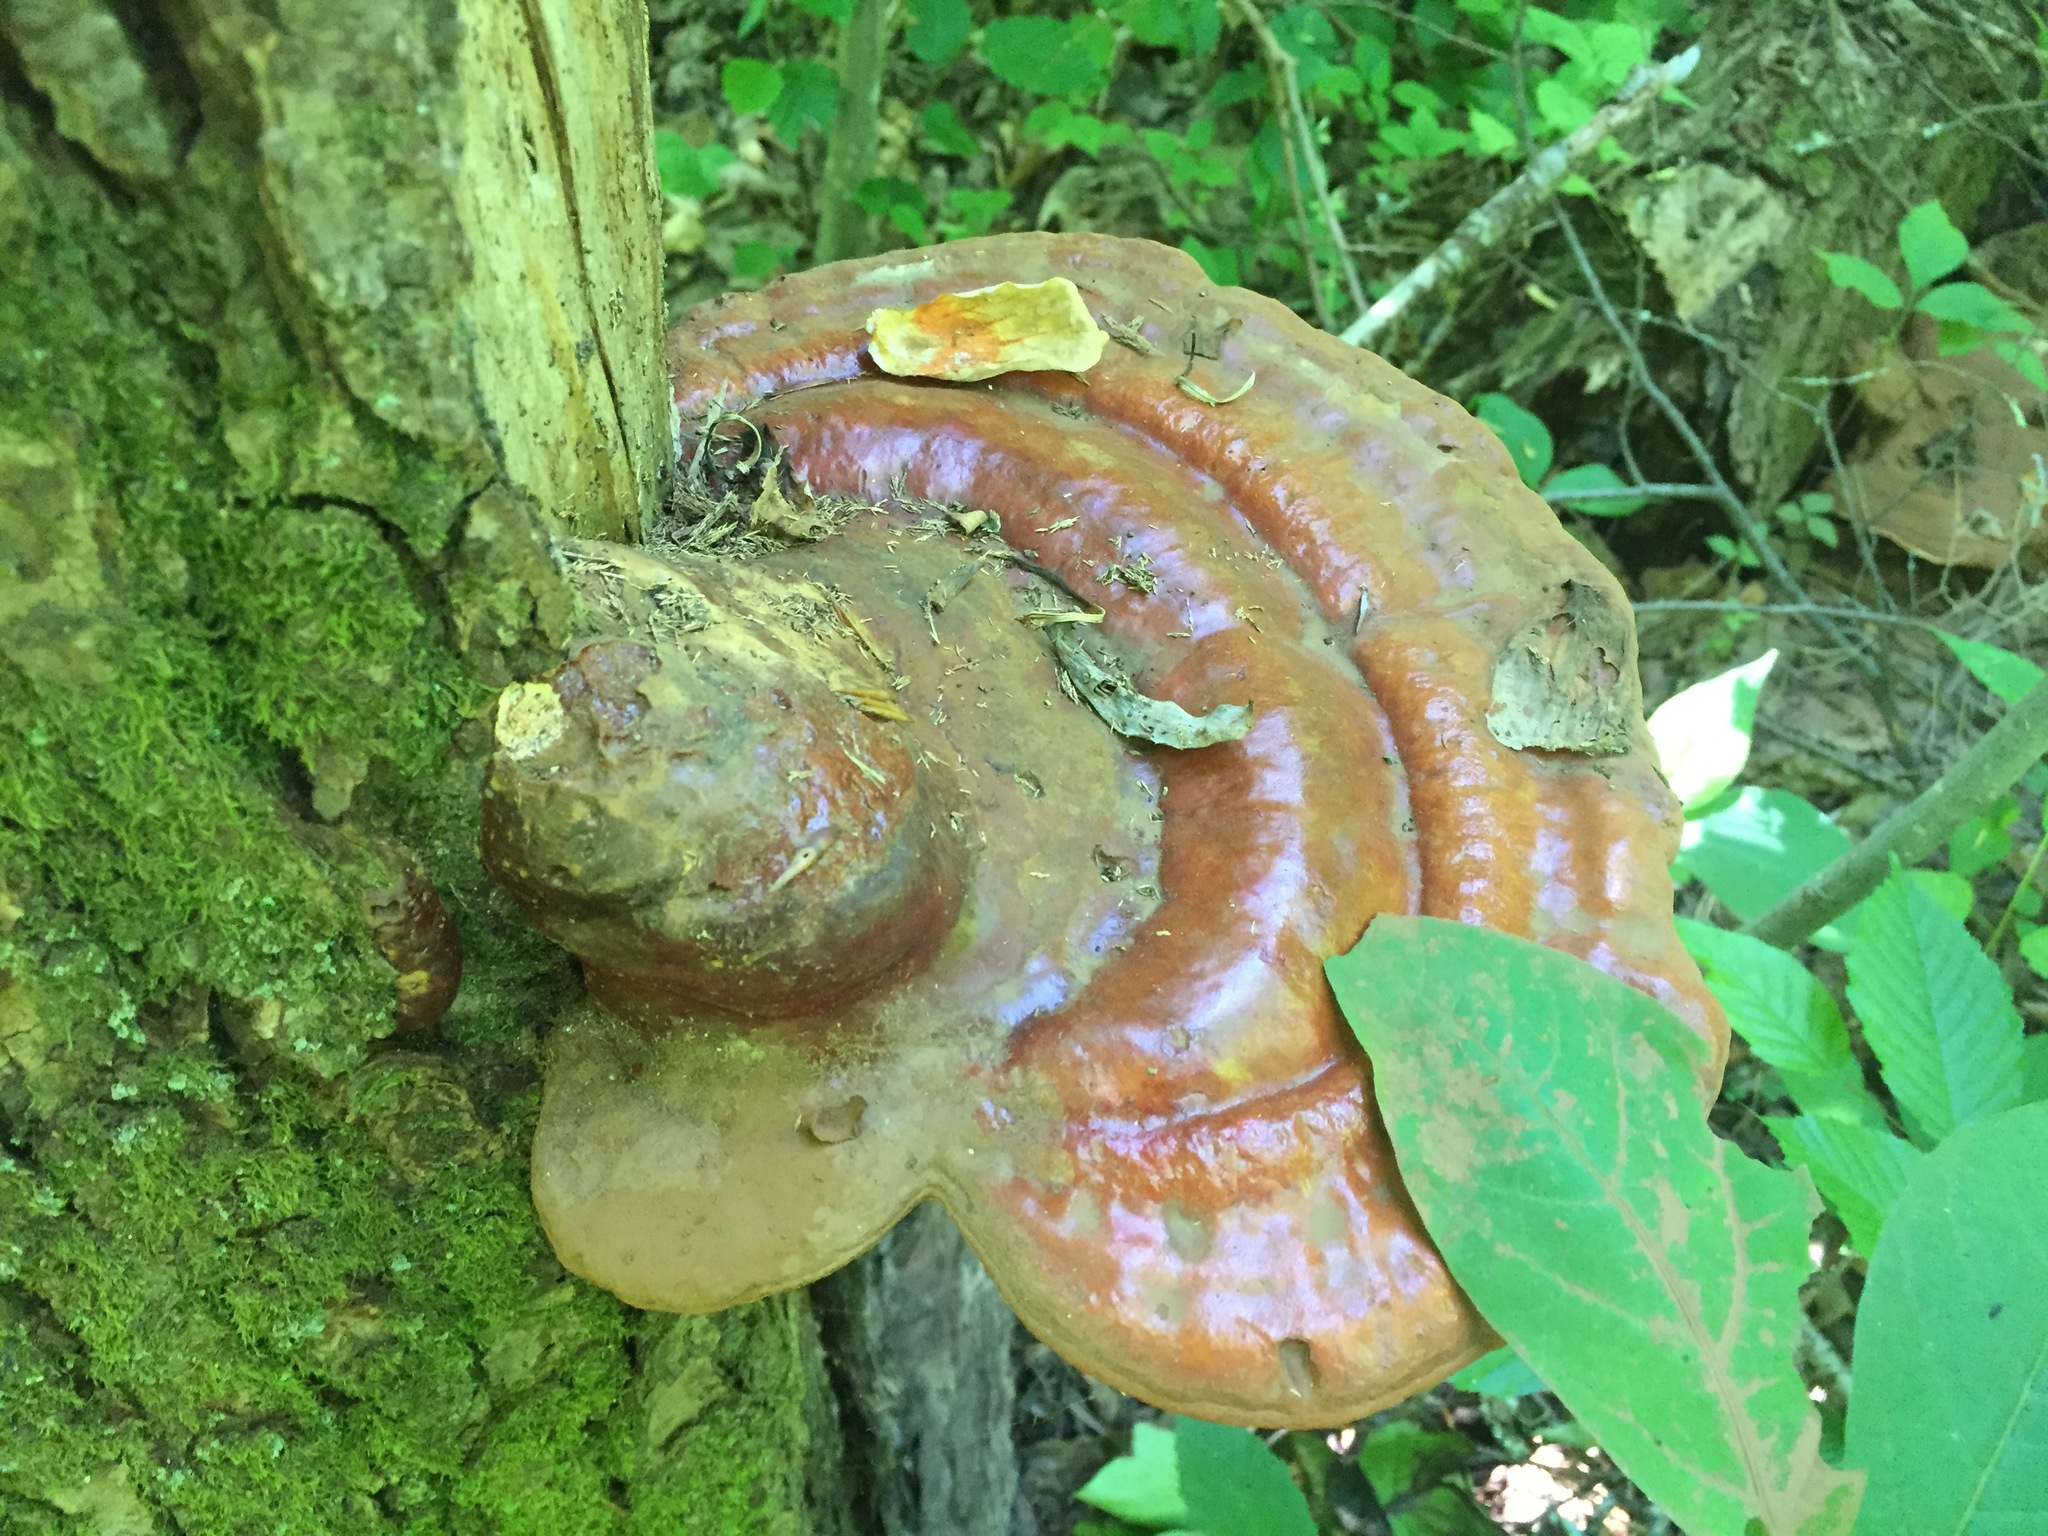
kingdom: Fungi
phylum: Basidiomycota
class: Agaricomycetes
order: Polyporales
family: Polyporaceae
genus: Ganoderma
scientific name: Ganoderma tsugae
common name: Hemlock varnish shelf
